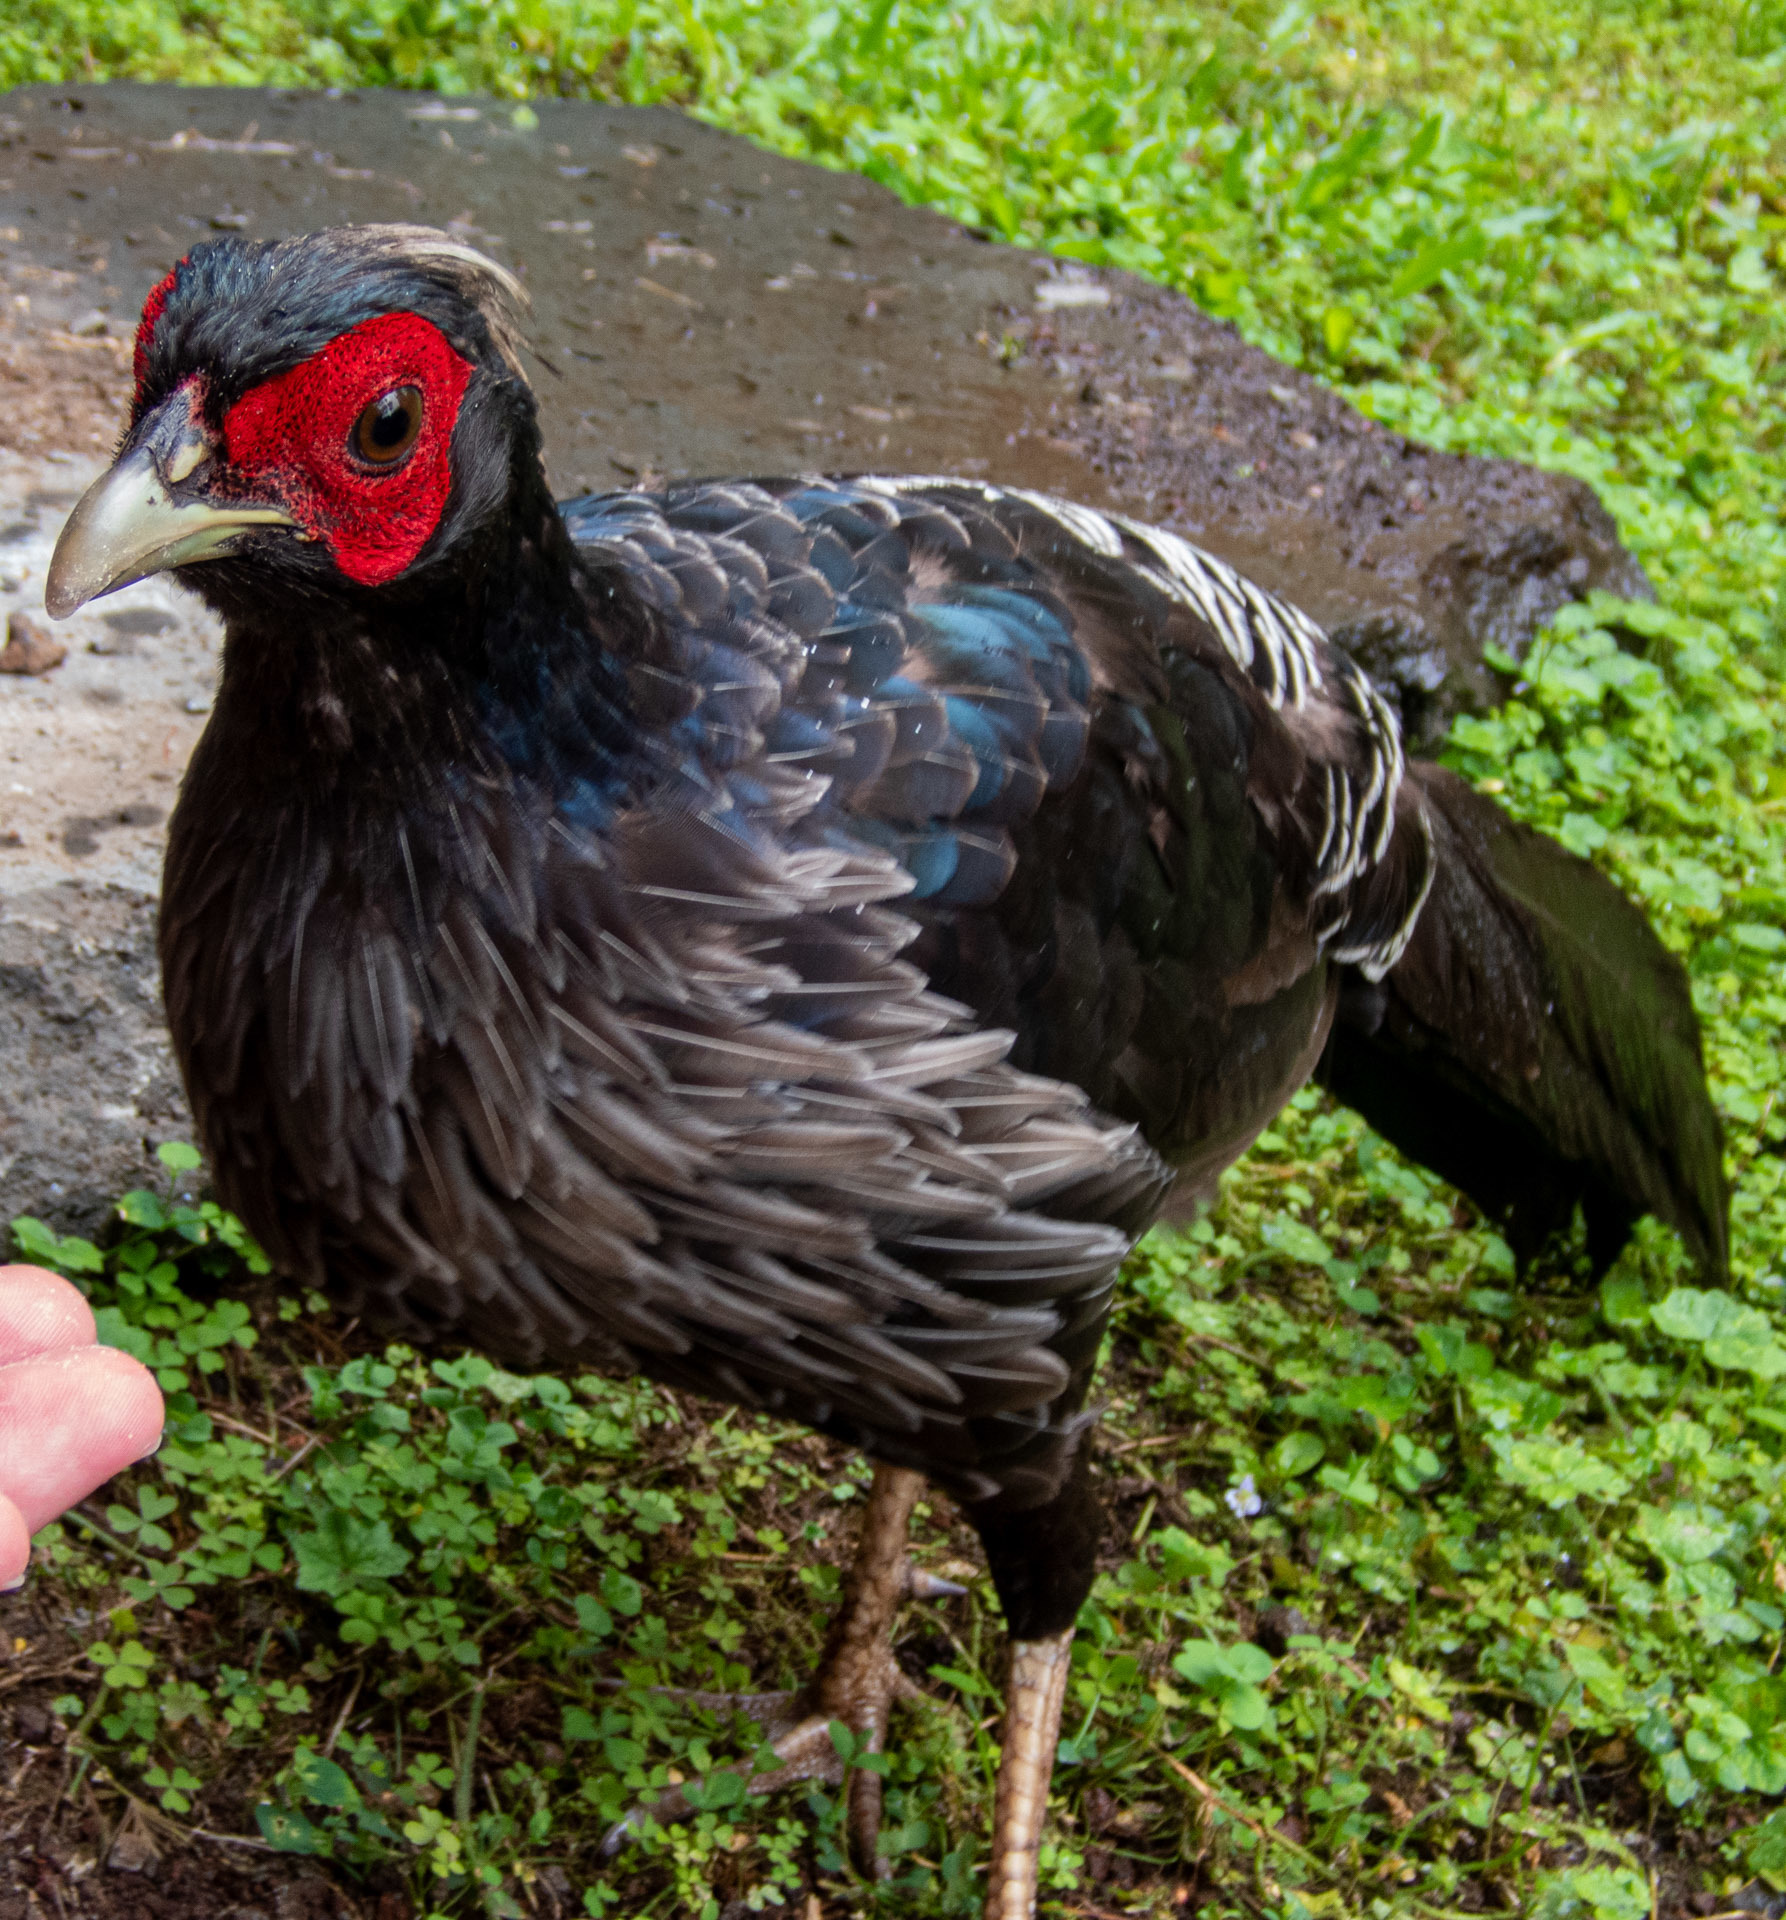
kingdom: Animalia
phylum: Chordata
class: Aves
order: Galliformes
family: Phasianidae
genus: Lophura
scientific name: Lophura leucomelanos
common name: Kalij pheasant
